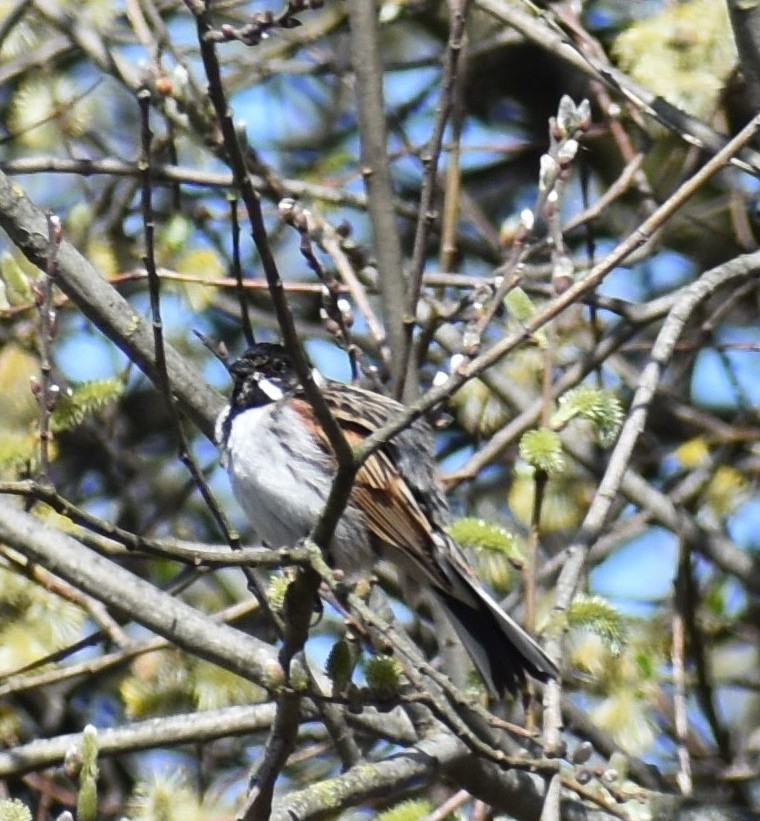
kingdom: Animalia
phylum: Chordata
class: Aves
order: Passeriformes
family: Emberizidae
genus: Emberiza
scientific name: Emberiza schoeniclus
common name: Reed bunting
